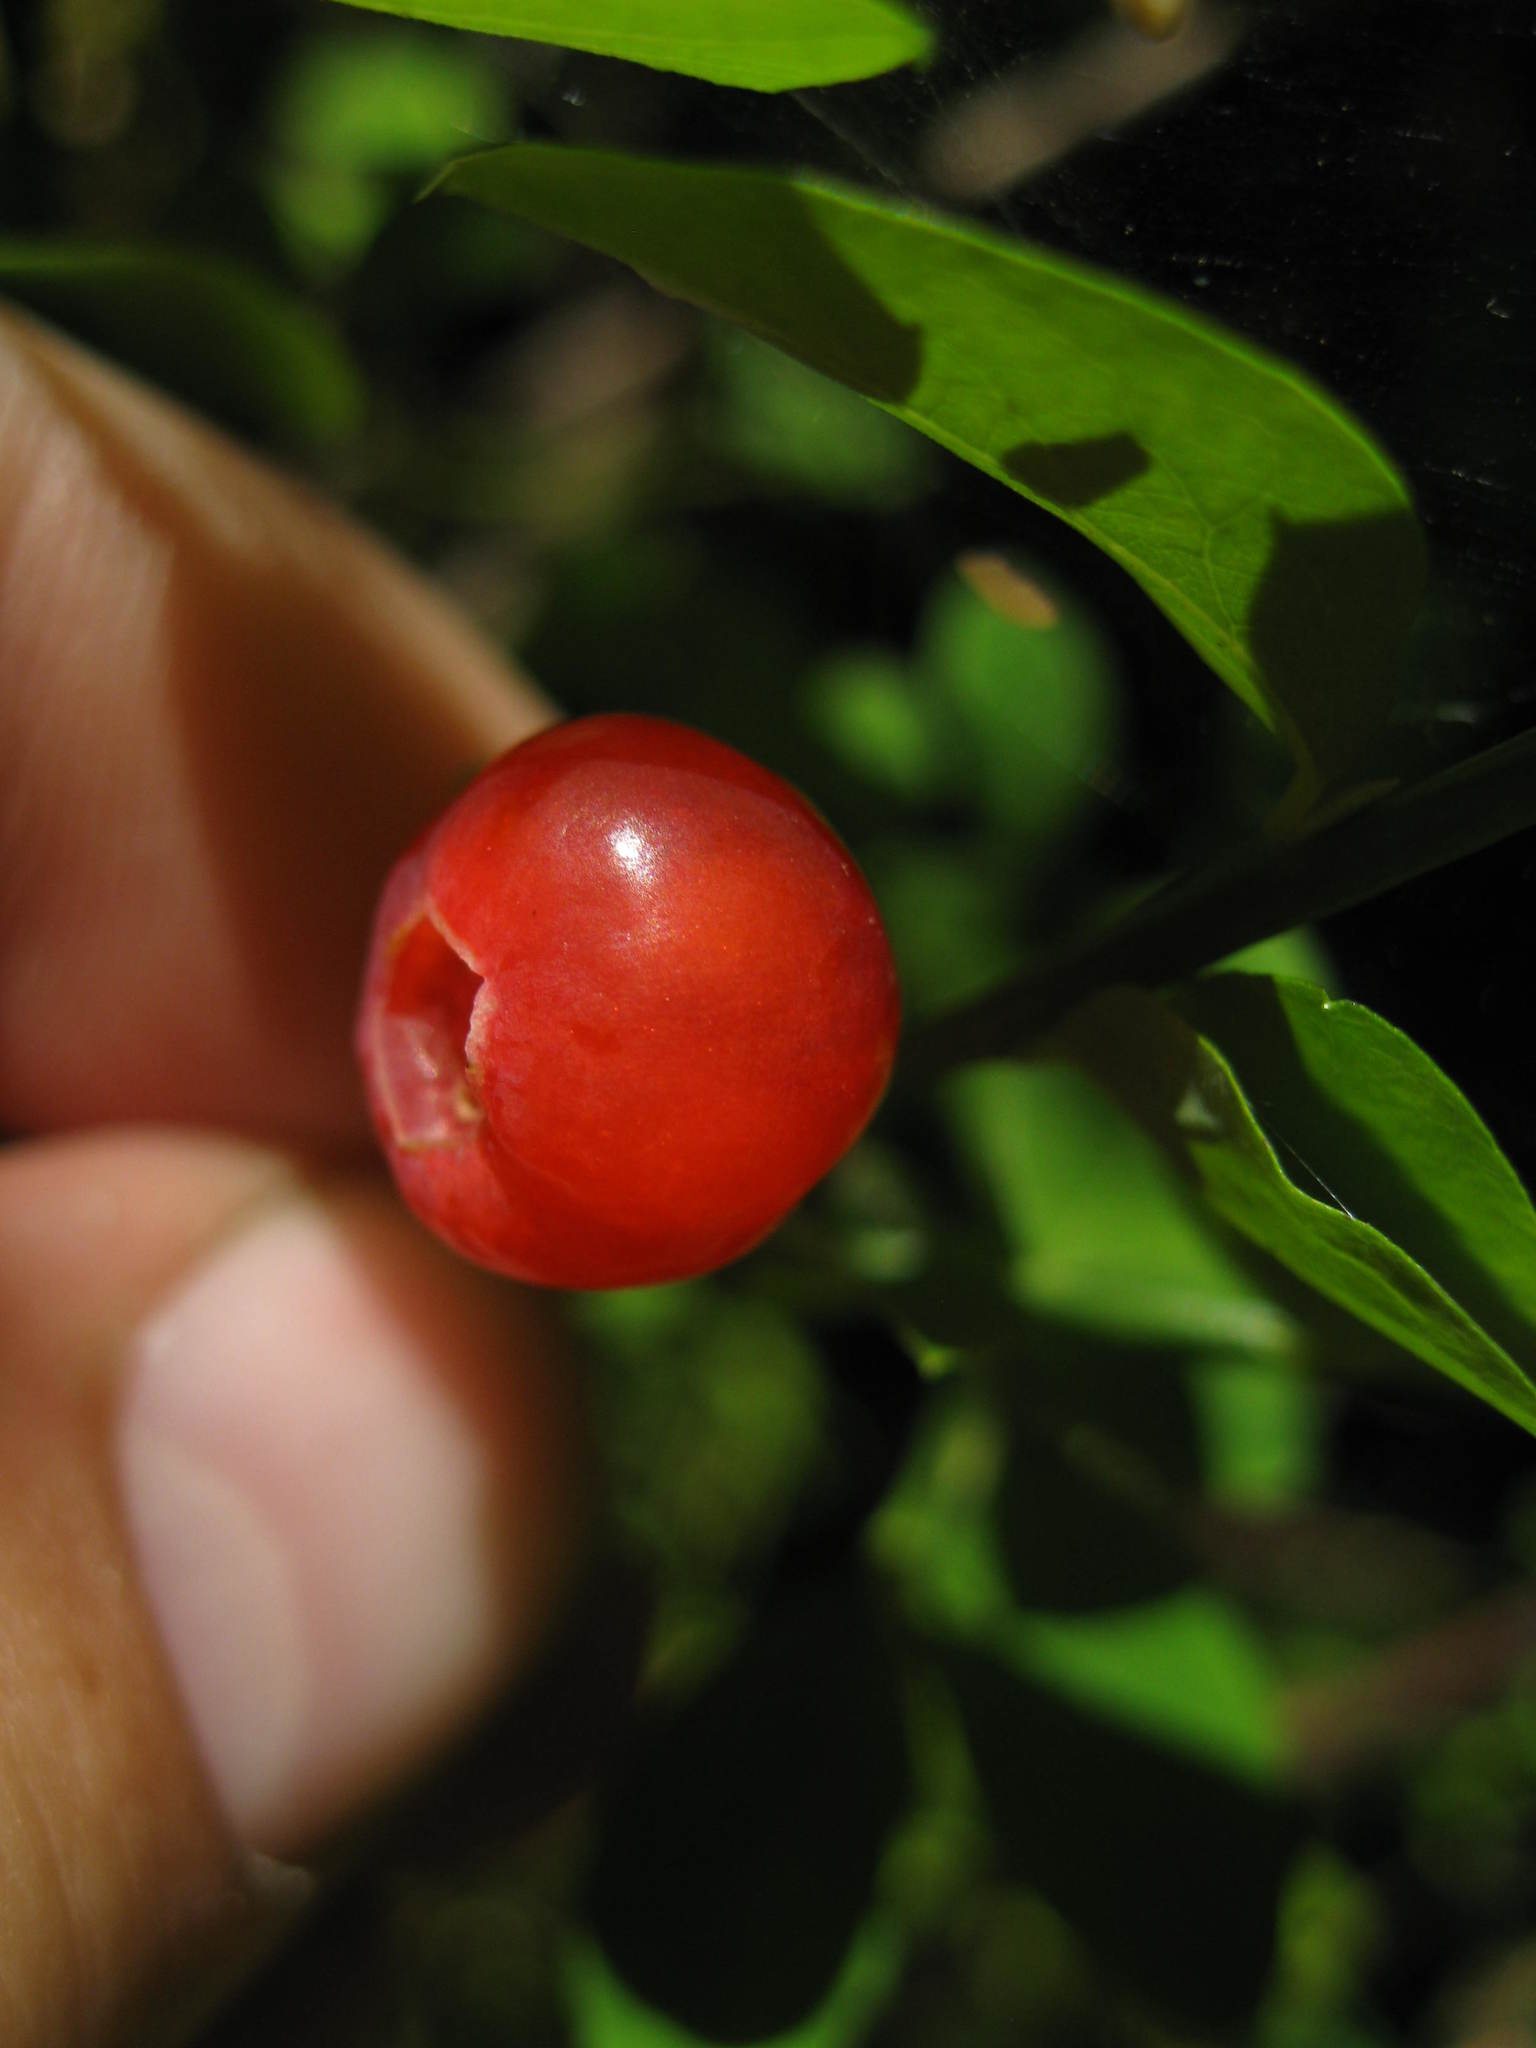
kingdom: Plantae
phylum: Tracheophyta
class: Magnoliopsida
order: Ericales
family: Ericaceae
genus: Vaccinium
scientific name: Vaccinium parvifolium
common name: Red-huckleberry
